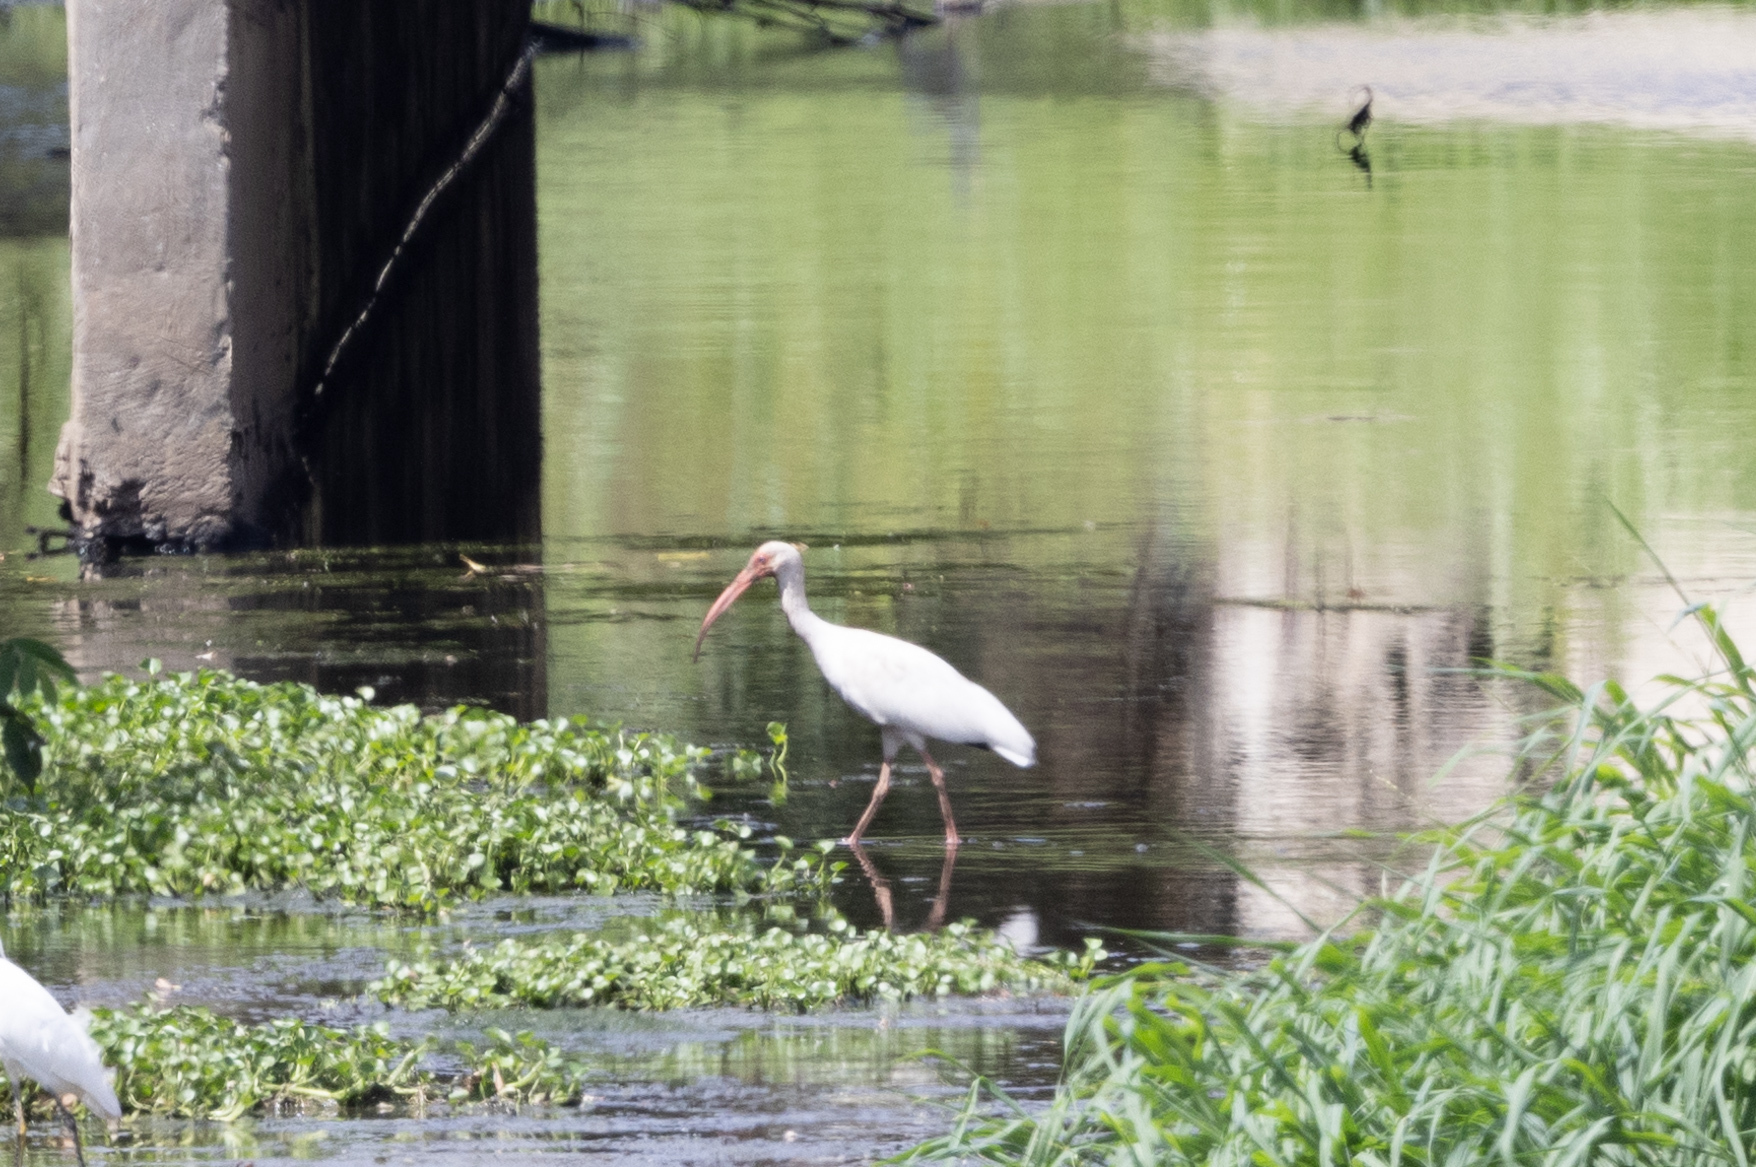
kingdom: Animalia
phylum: Chordata
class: Aves
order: Pelecaniformes
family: Threskiornithidae
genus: Eudocimus
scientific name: Eudocimus albus
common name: White ibis
